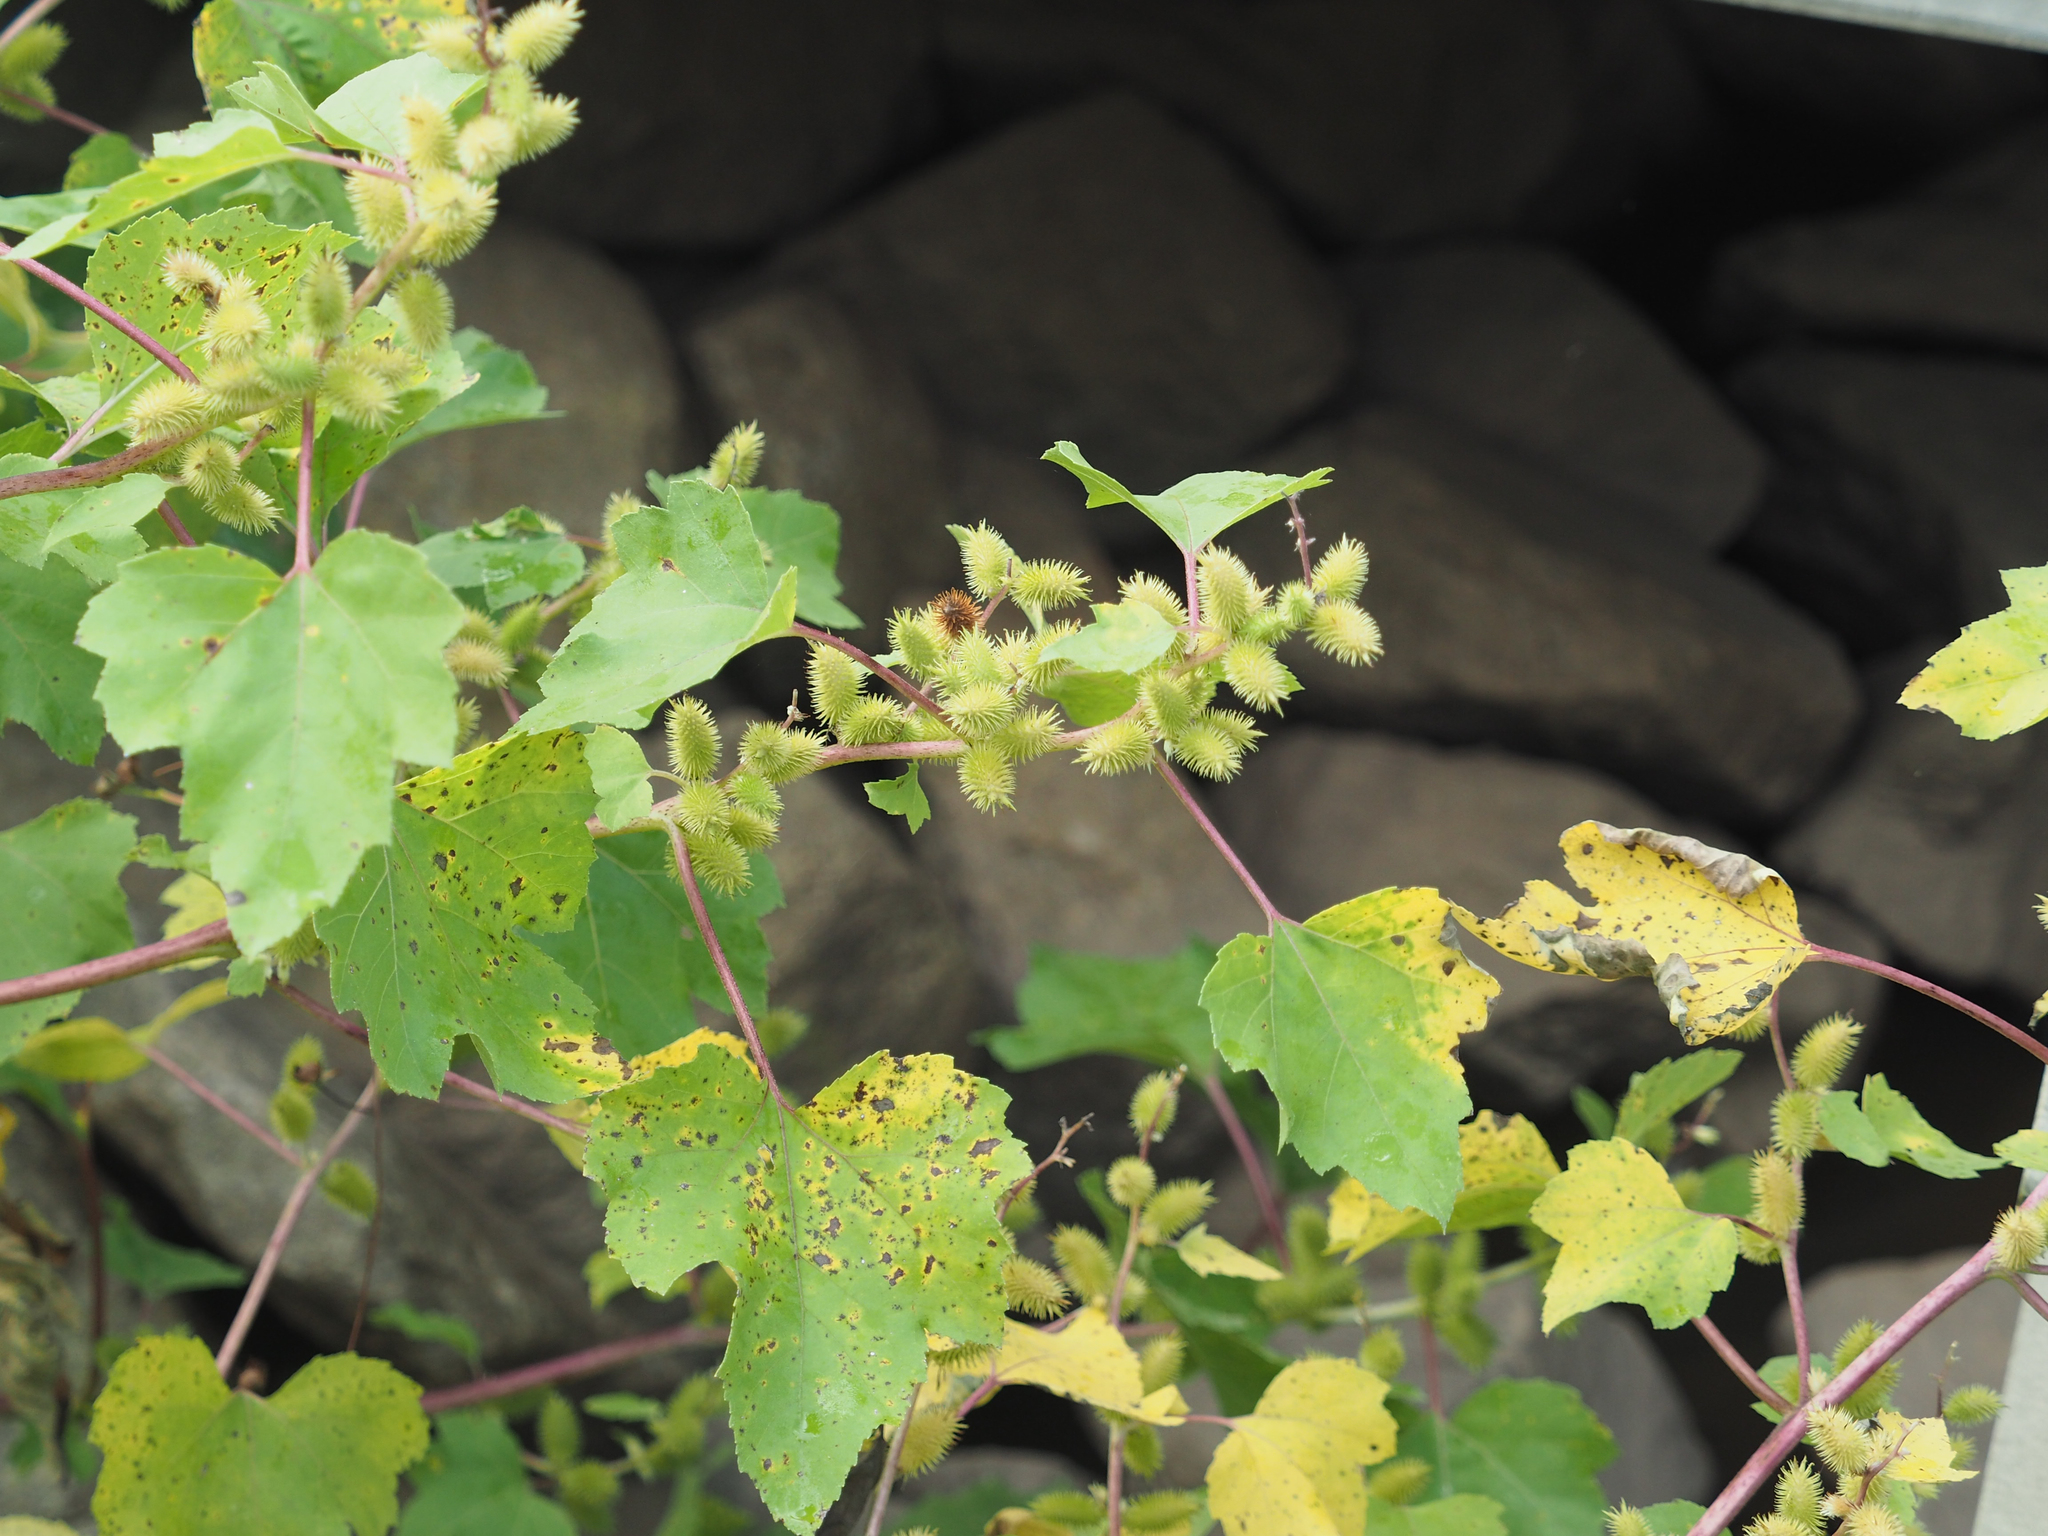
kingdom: Plantae
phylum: Tracheophyta
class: Magnoliopsida
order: Asterales
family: Asteraceae
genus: Xanthium
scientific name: Xanthium strumarium
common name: Rough cocklebur
